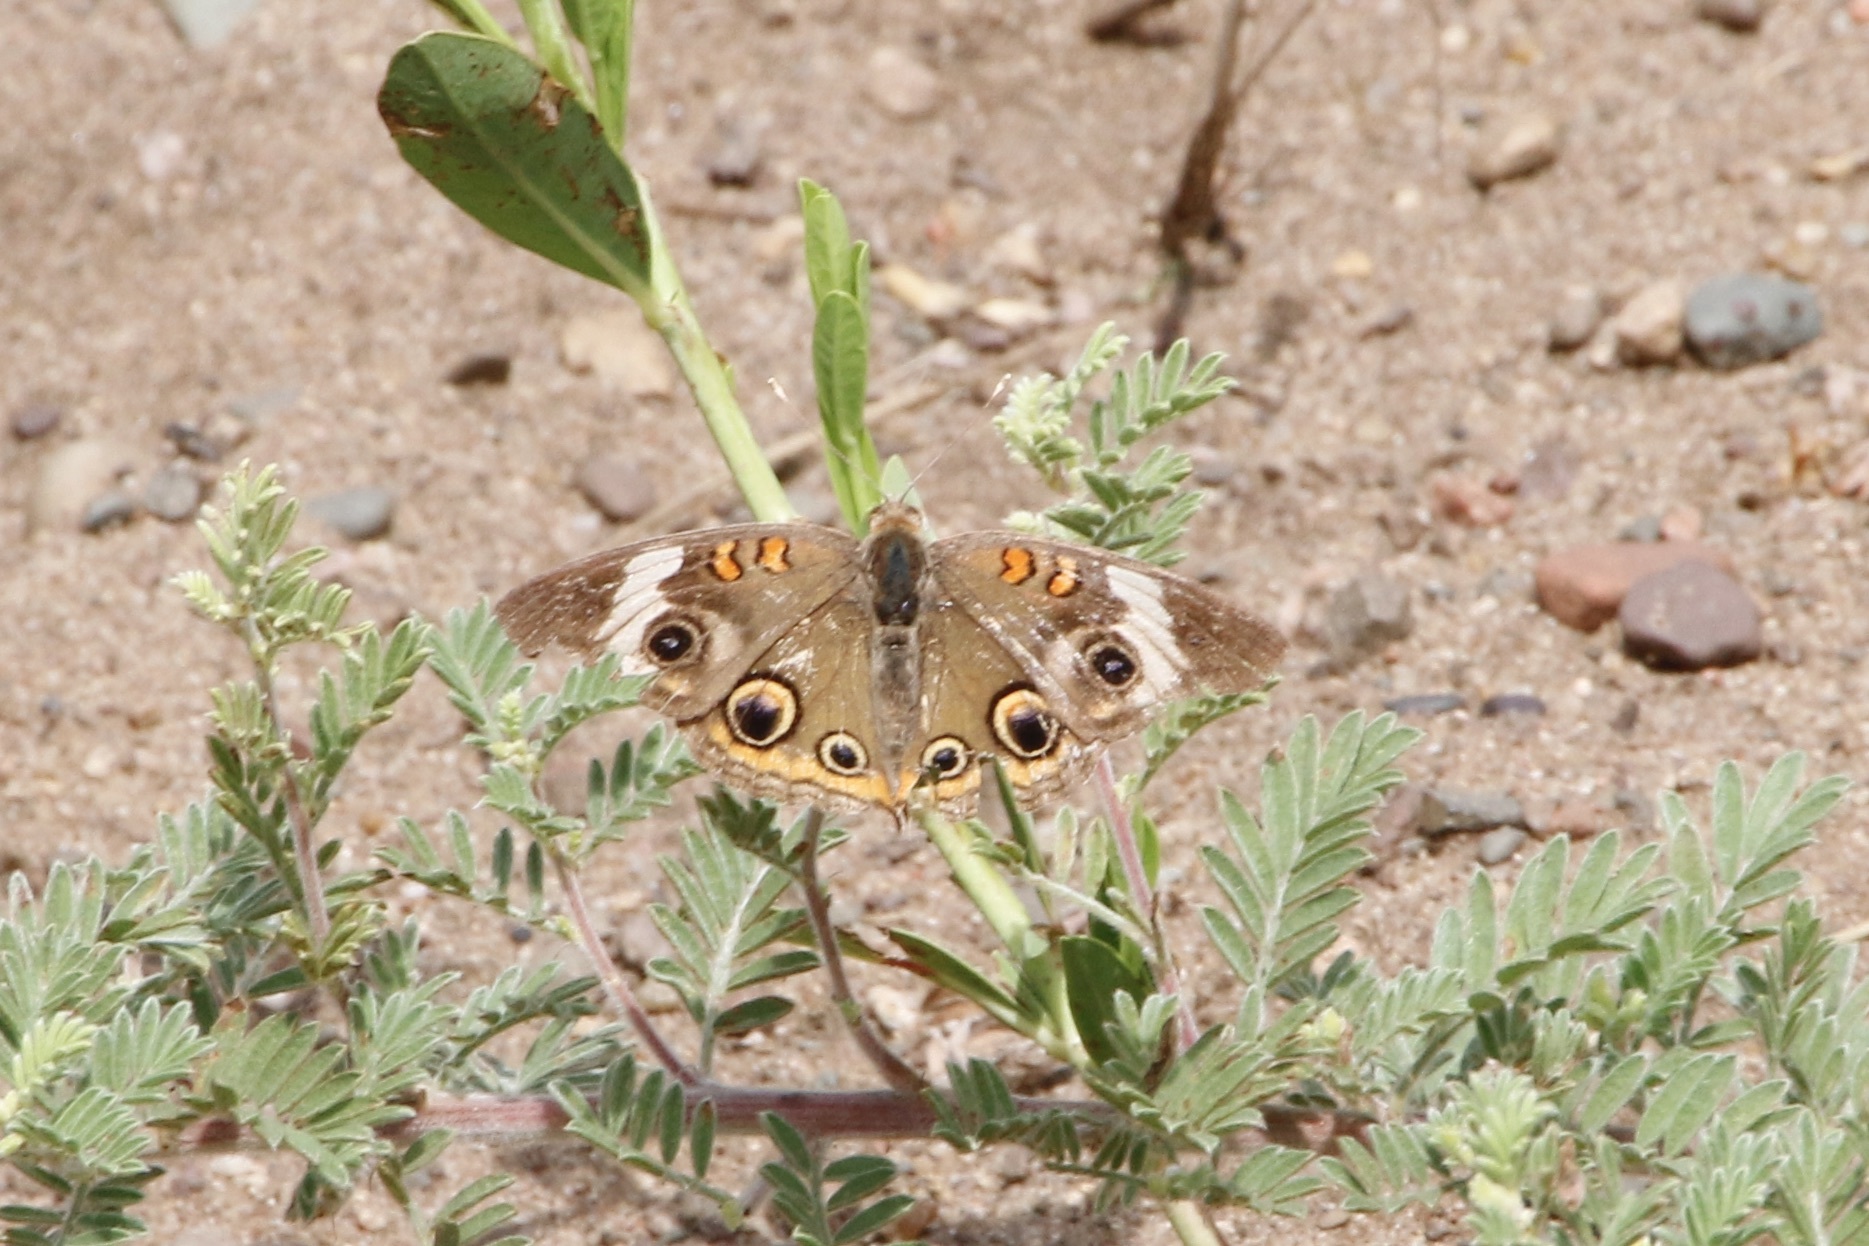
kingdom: Animalia
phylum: Arthropoda
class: Insecta
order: Lepidoptera
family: Nymphalidae
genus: Junonia
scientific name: Junonia coenia
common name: Common buckeye
